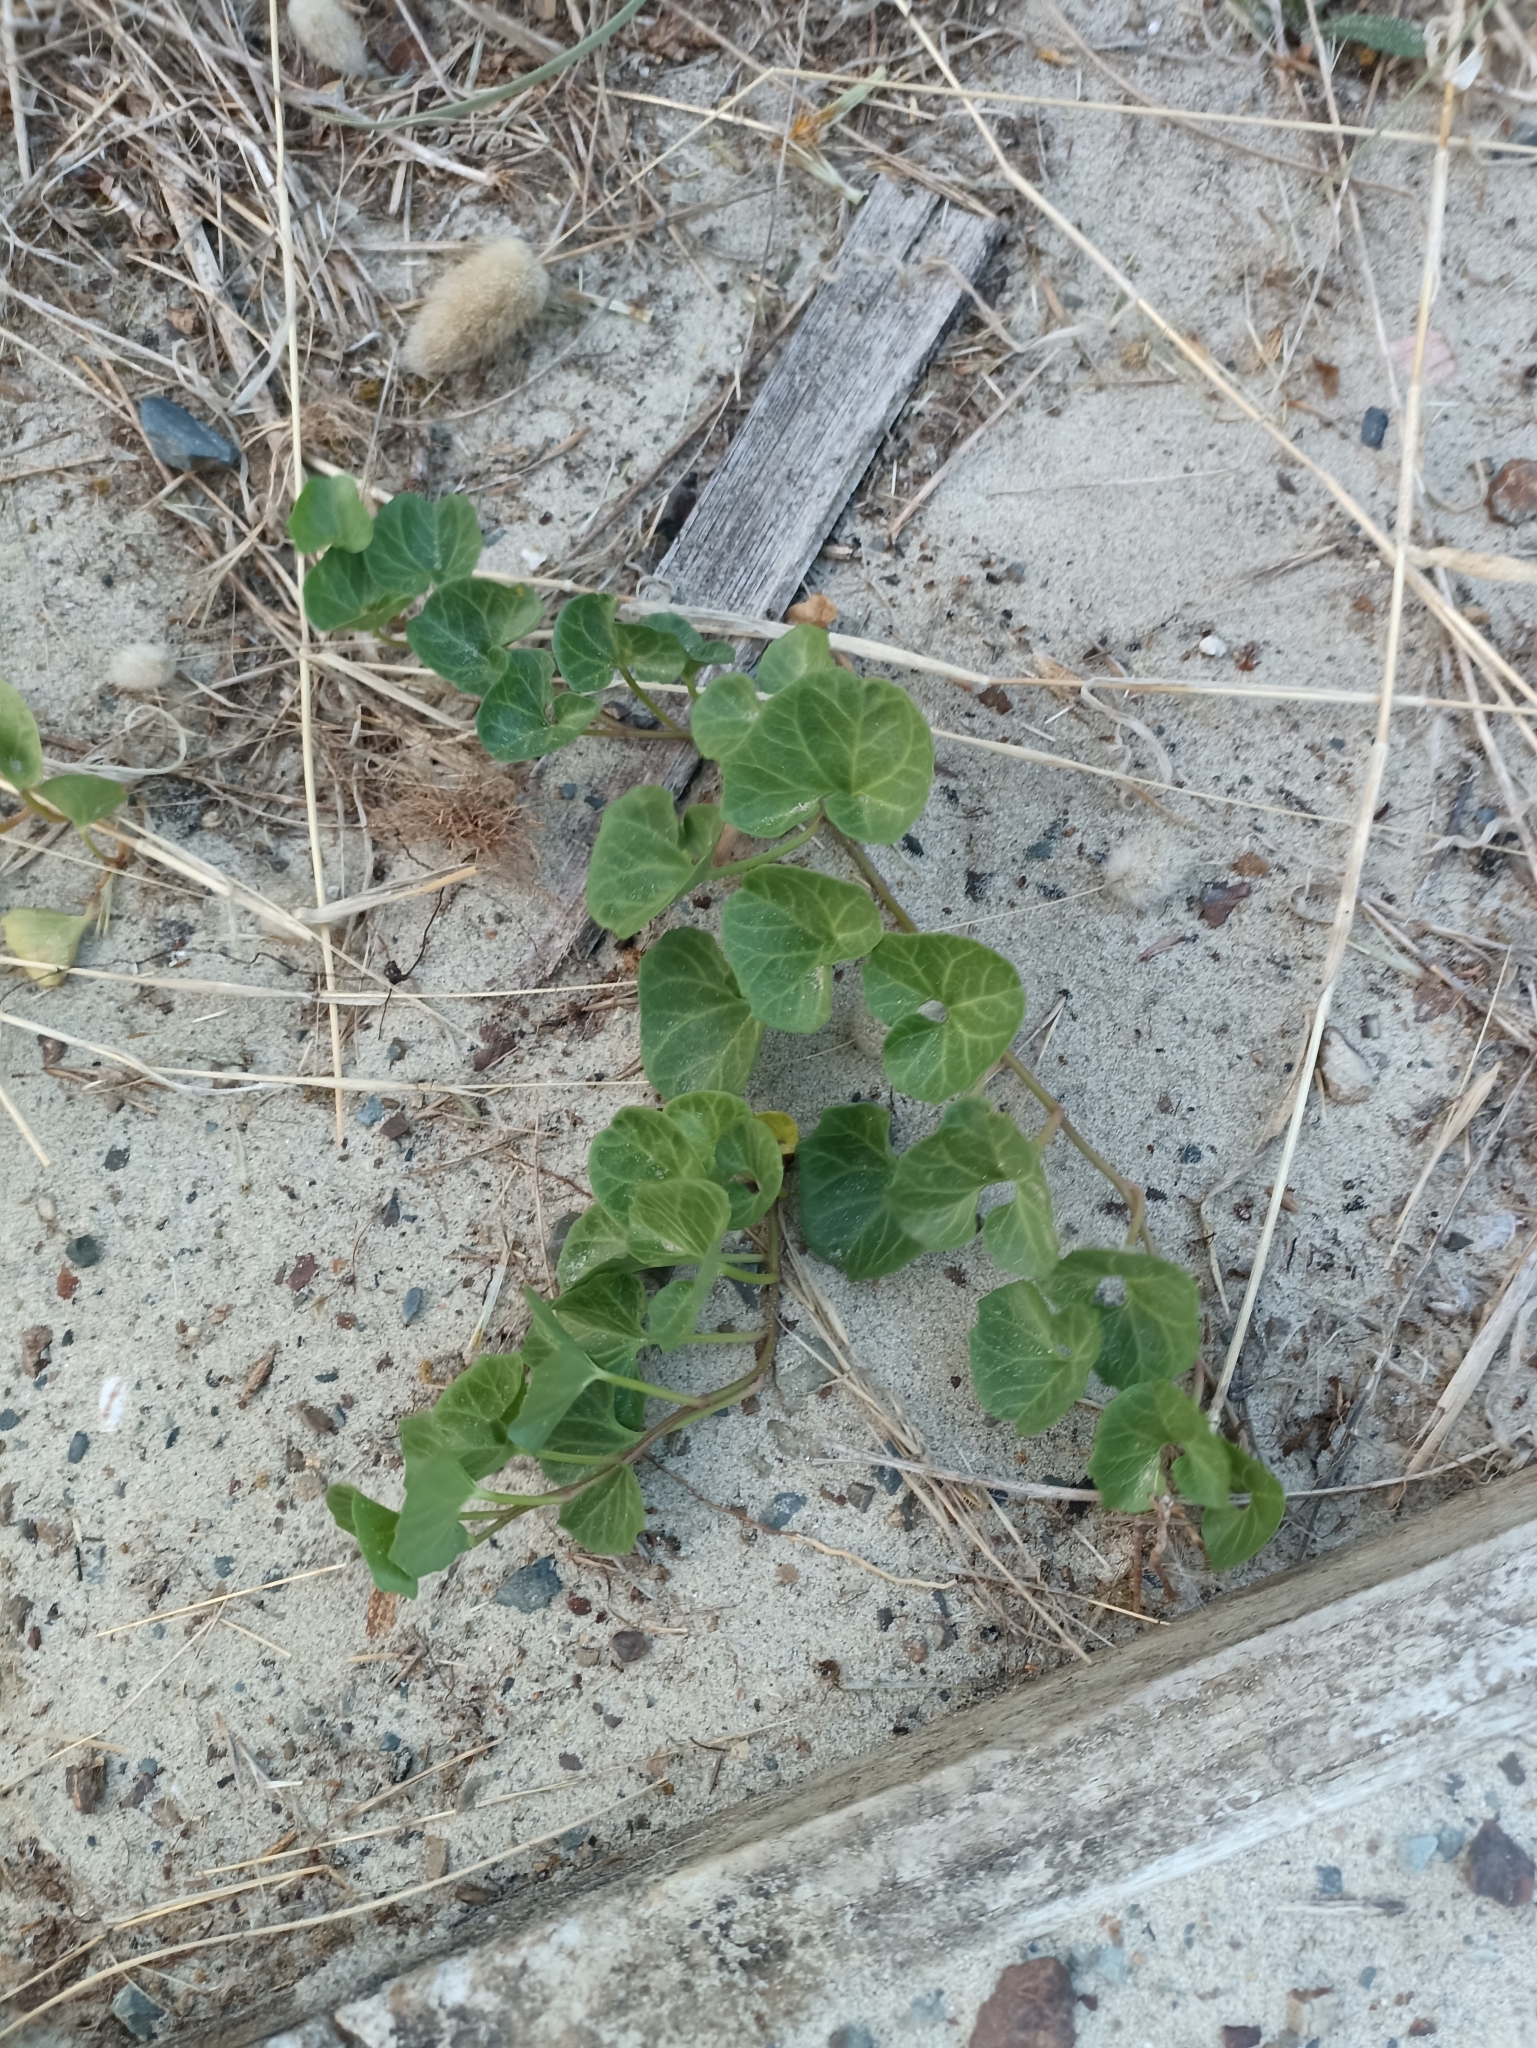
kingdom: Plantae
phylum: Tracheophyta
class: Magnoliopsida
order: Solanales
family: Convolvulaceae
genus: Calystegia
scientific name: Calystegia soldanella
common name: Sea bindweed
